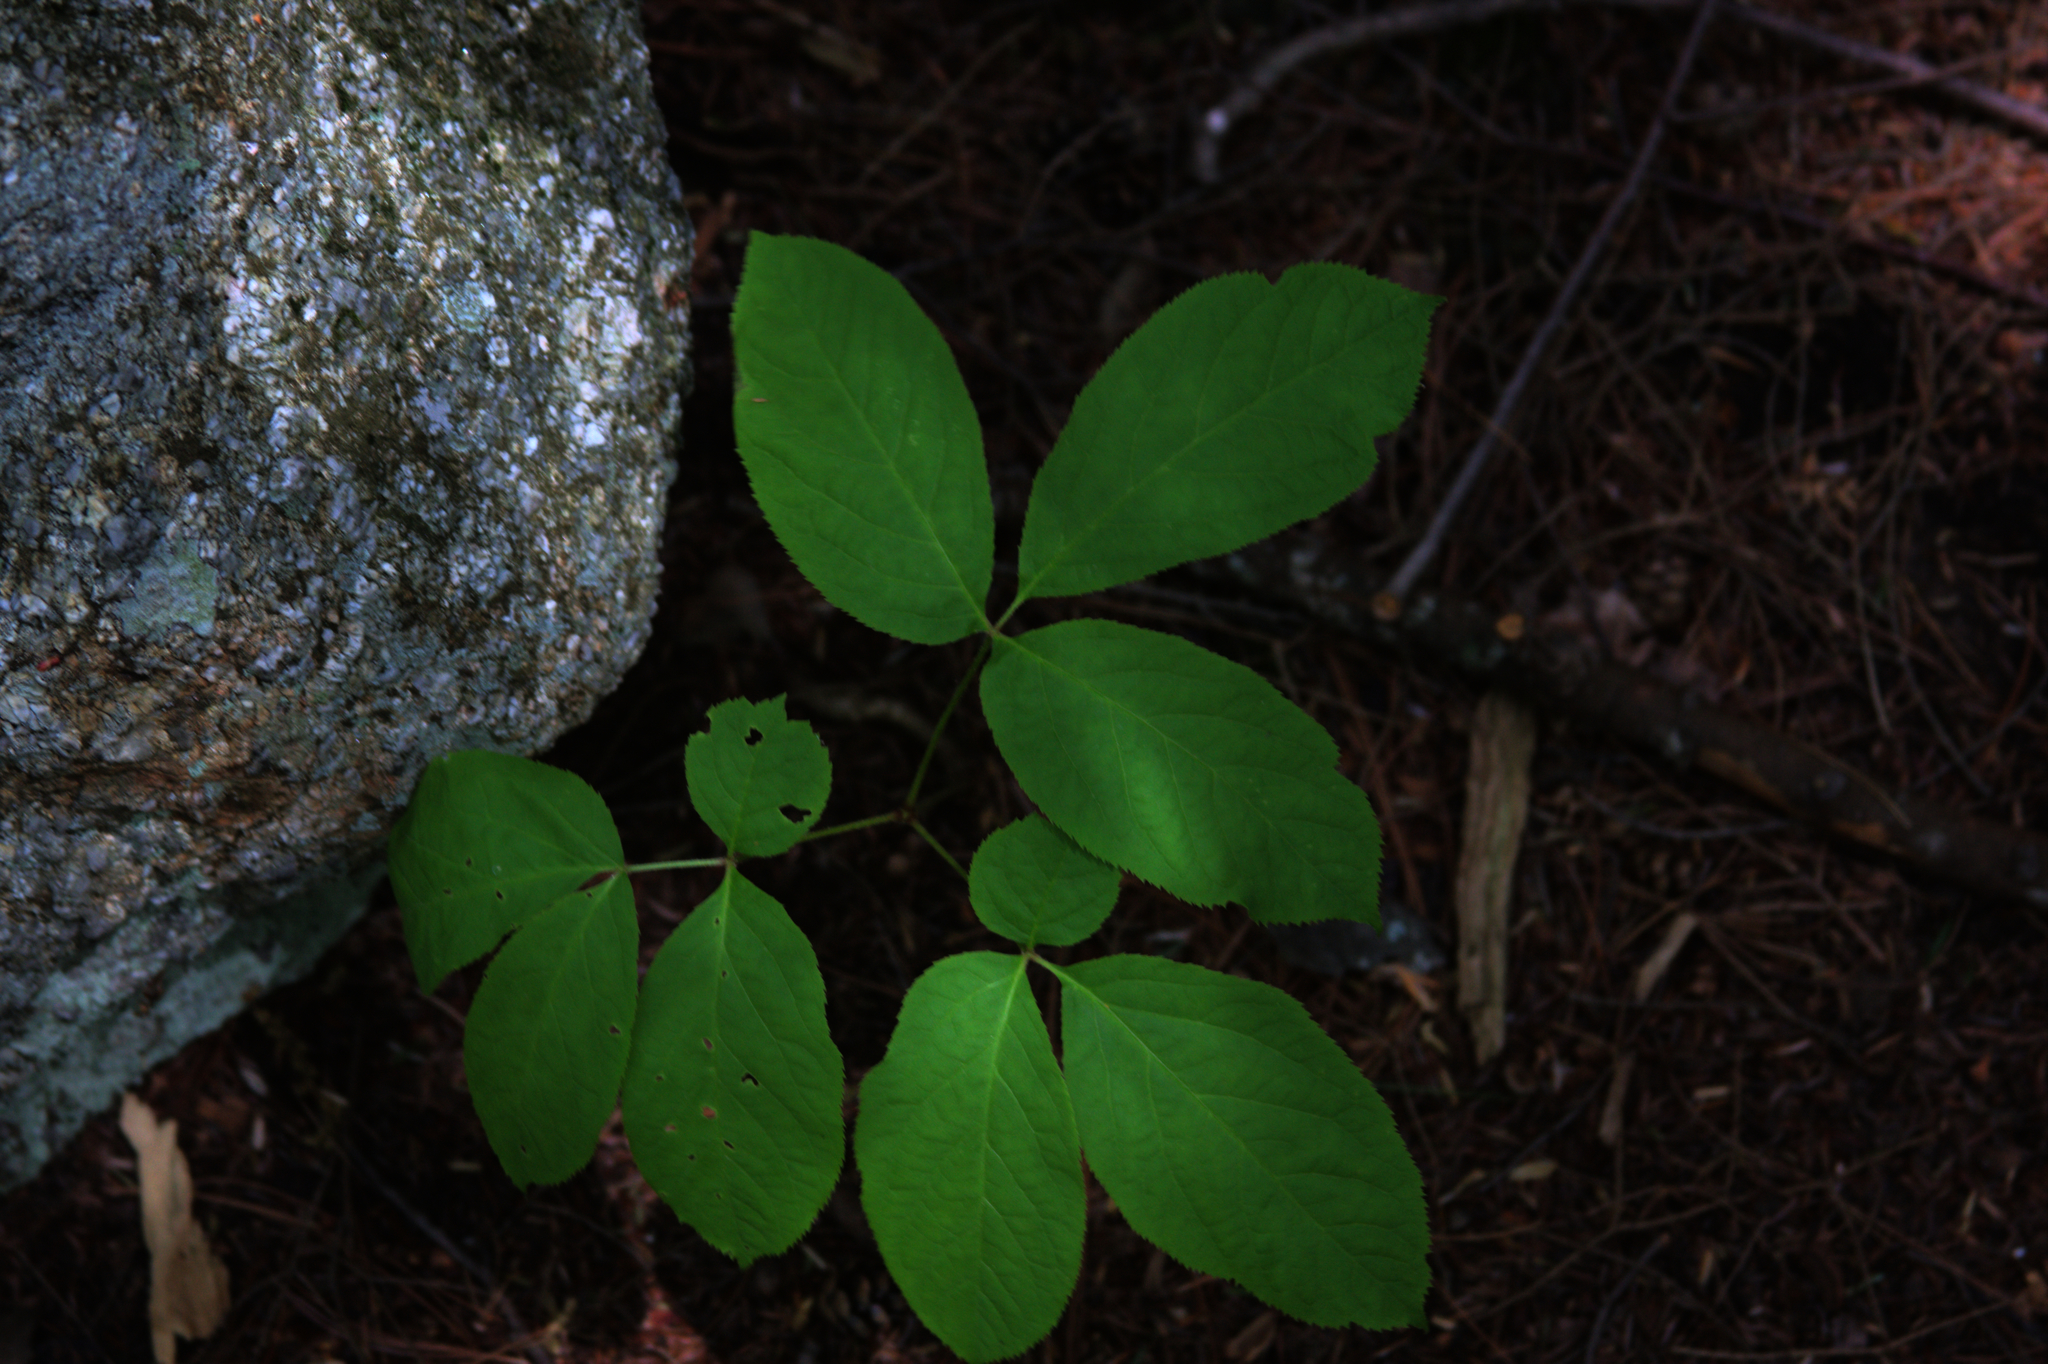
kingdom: Plantae
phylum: Tracheophyta
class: Magnoliopsida
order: Apiales
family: Araliaceae
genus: Aralia
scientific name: Aralia nudicaulis
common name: Wild sarsaparilla
